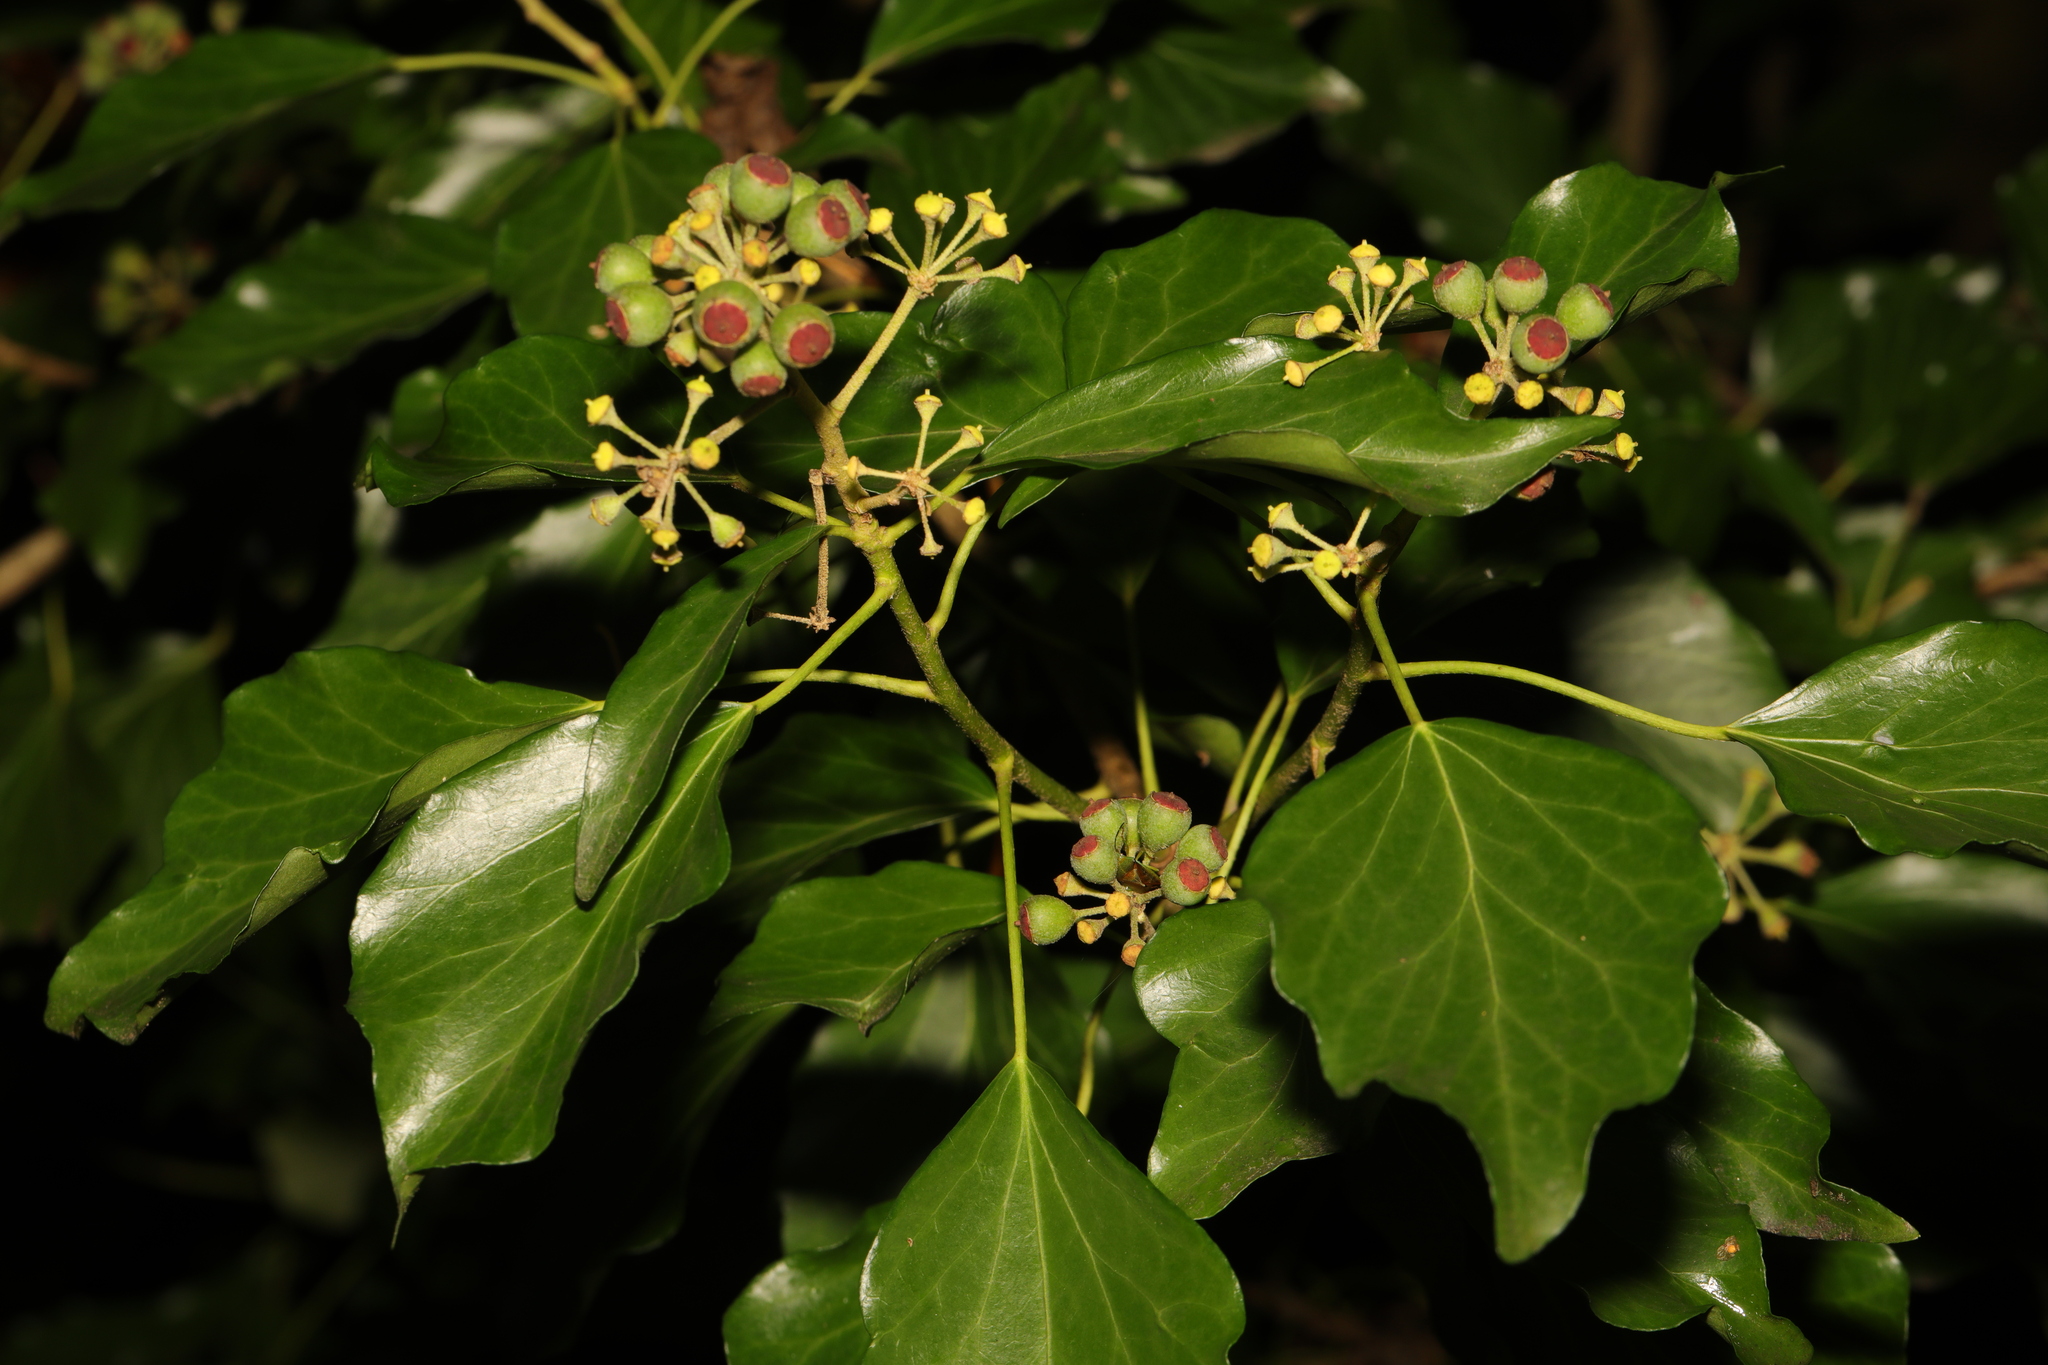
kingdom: Plantae
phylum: Tracheophyta
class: Magnoliopsida
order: Apiales
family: Araliaceae
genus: Hedera
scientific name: Hedera helix
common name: Ivy
